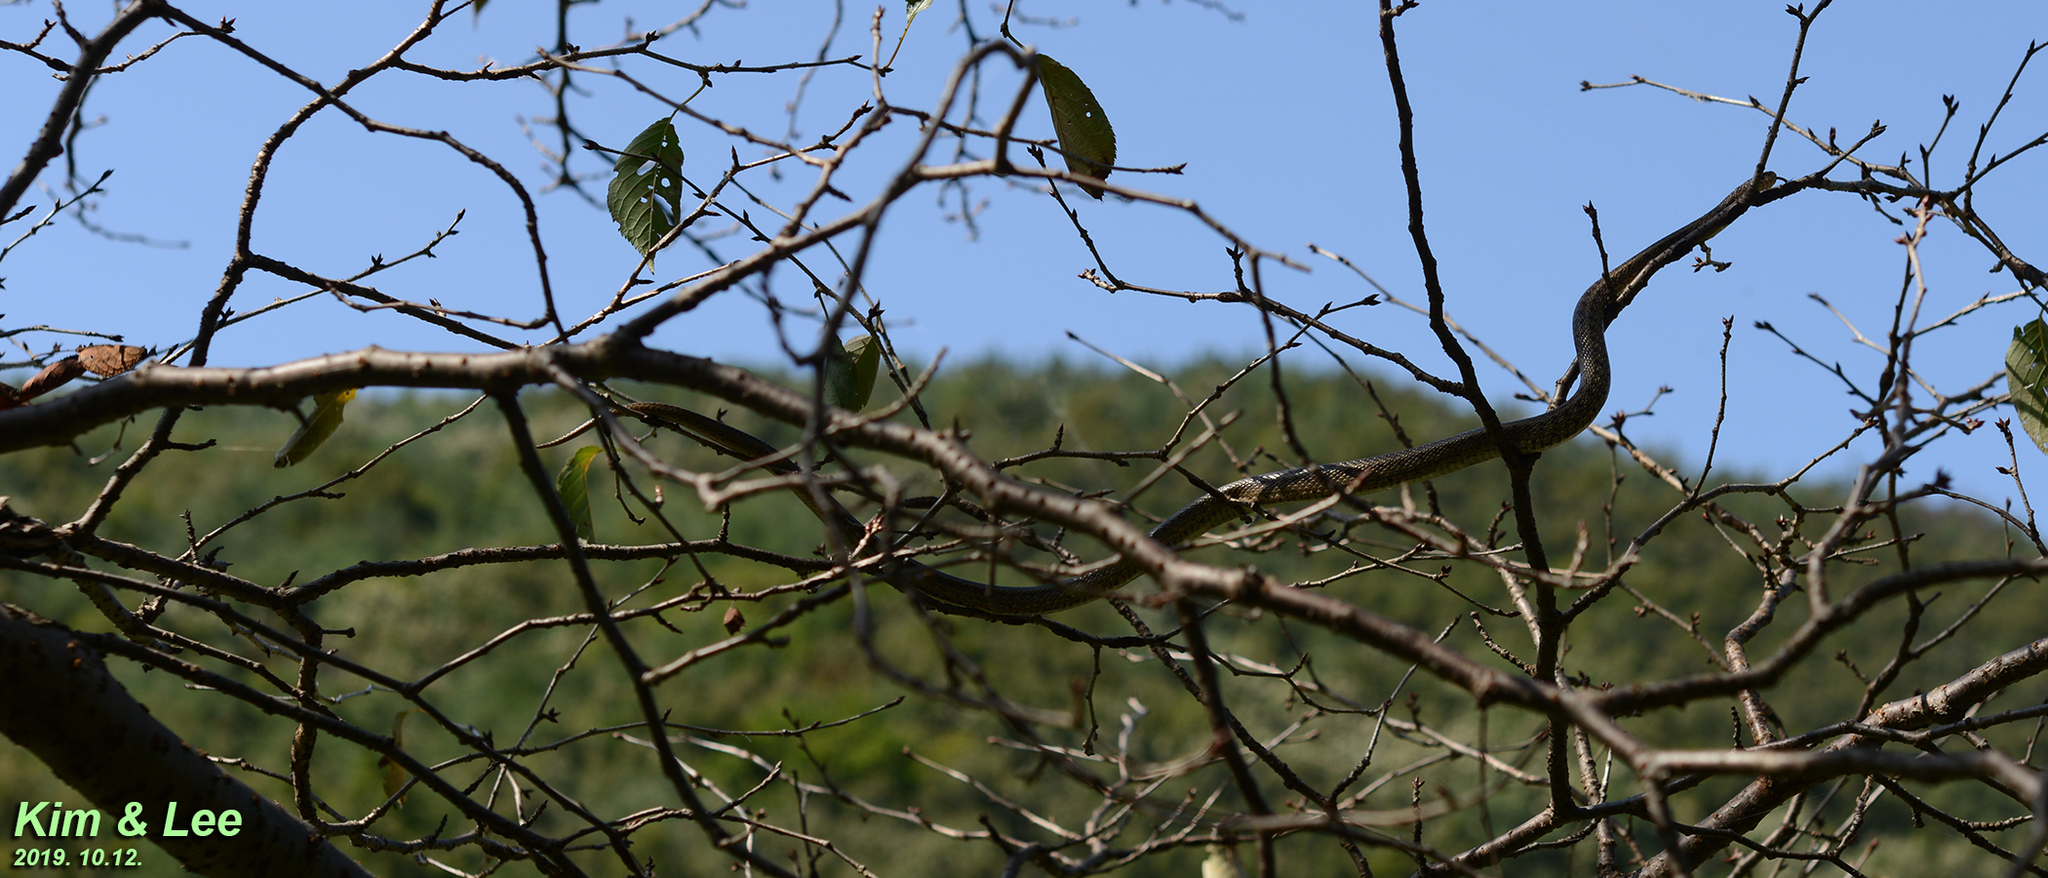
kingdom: Animalia
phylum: Chordata
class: Squamata
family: Colubridae
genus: Elaphe
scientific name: Elaphe dione
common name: Dione ratsnake
